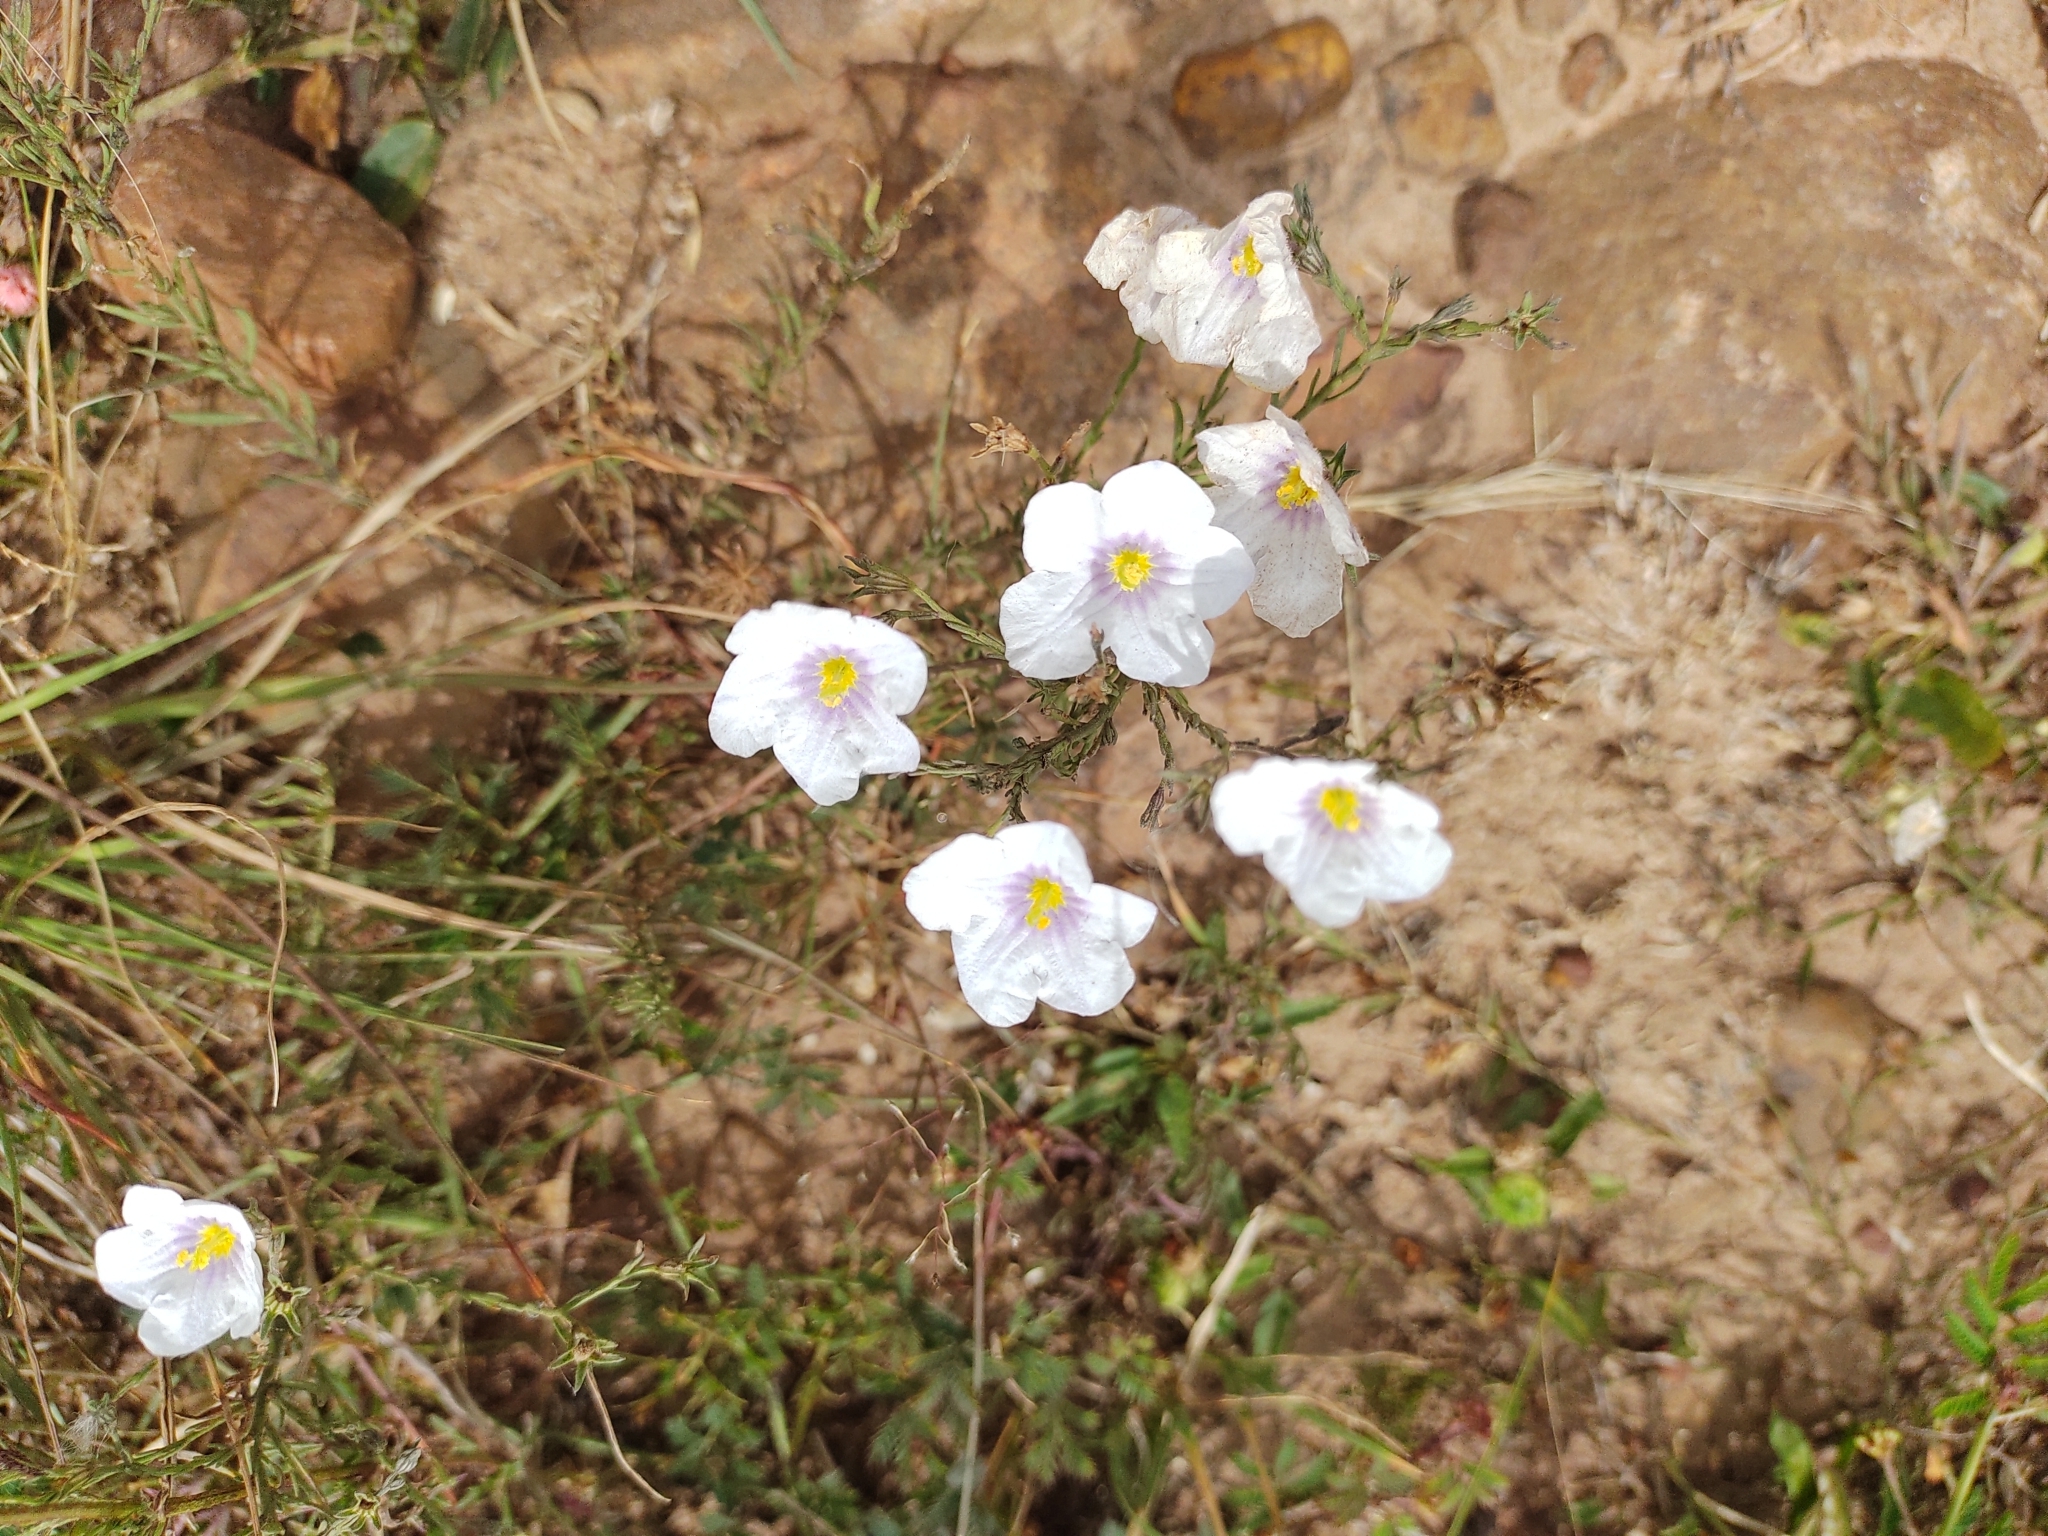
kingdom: Plantae
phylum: Tracheophyta
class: Magnoliopsida
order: Solanales
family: Solanaceae
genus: Nierembergia
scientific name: Nierembergia linariifolia
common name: Dwarf cupflower
